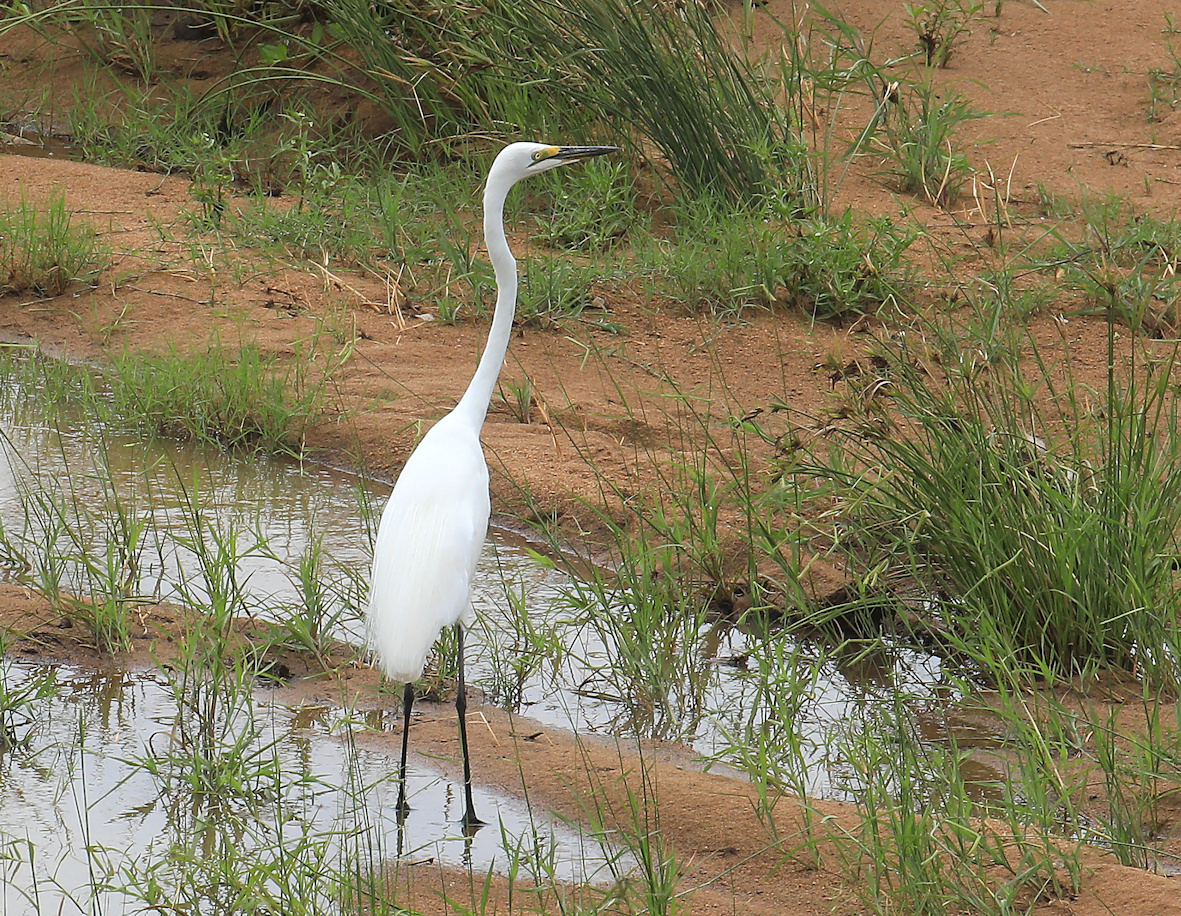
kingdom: Animalia
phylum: Chordata
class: Aves
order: Pelecaniformes
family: Ardeidae
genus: Ardea
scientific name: Ardea alba
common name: Great egret
